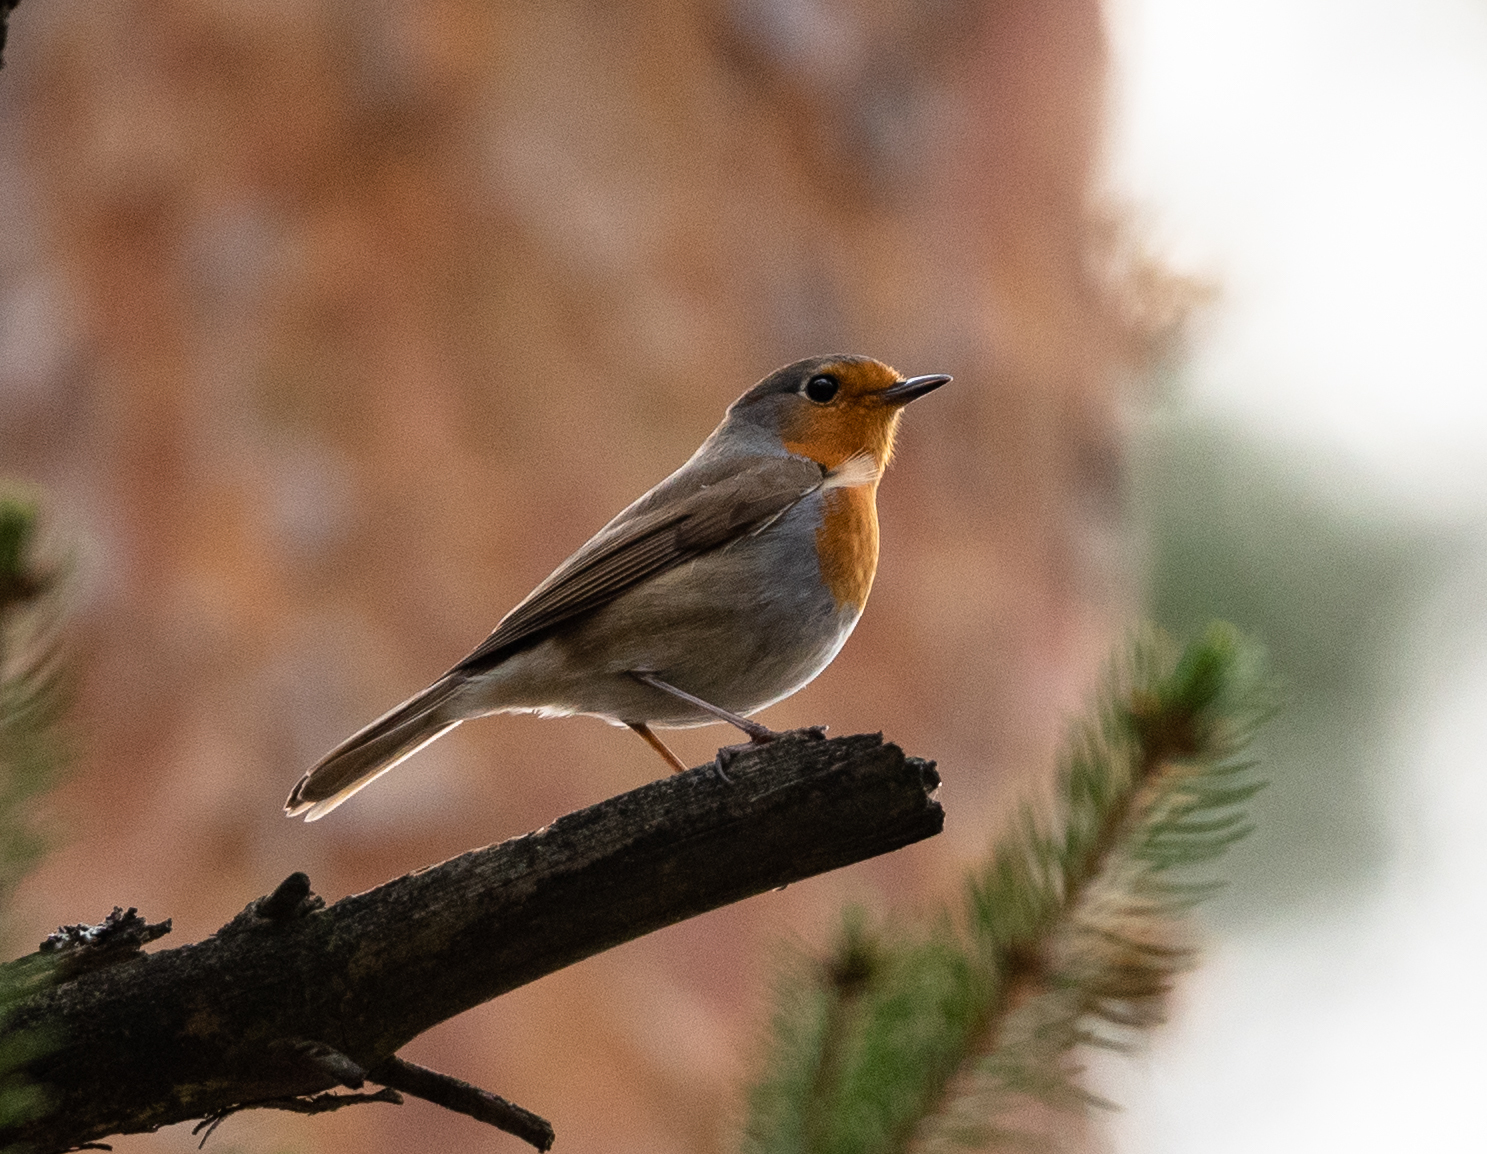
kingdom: Animalia
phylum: Chordata
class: Aves
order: Passeriformes
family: Muscicapidae
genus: Erithacus
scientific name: Erithacus rubecula
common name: European robin
